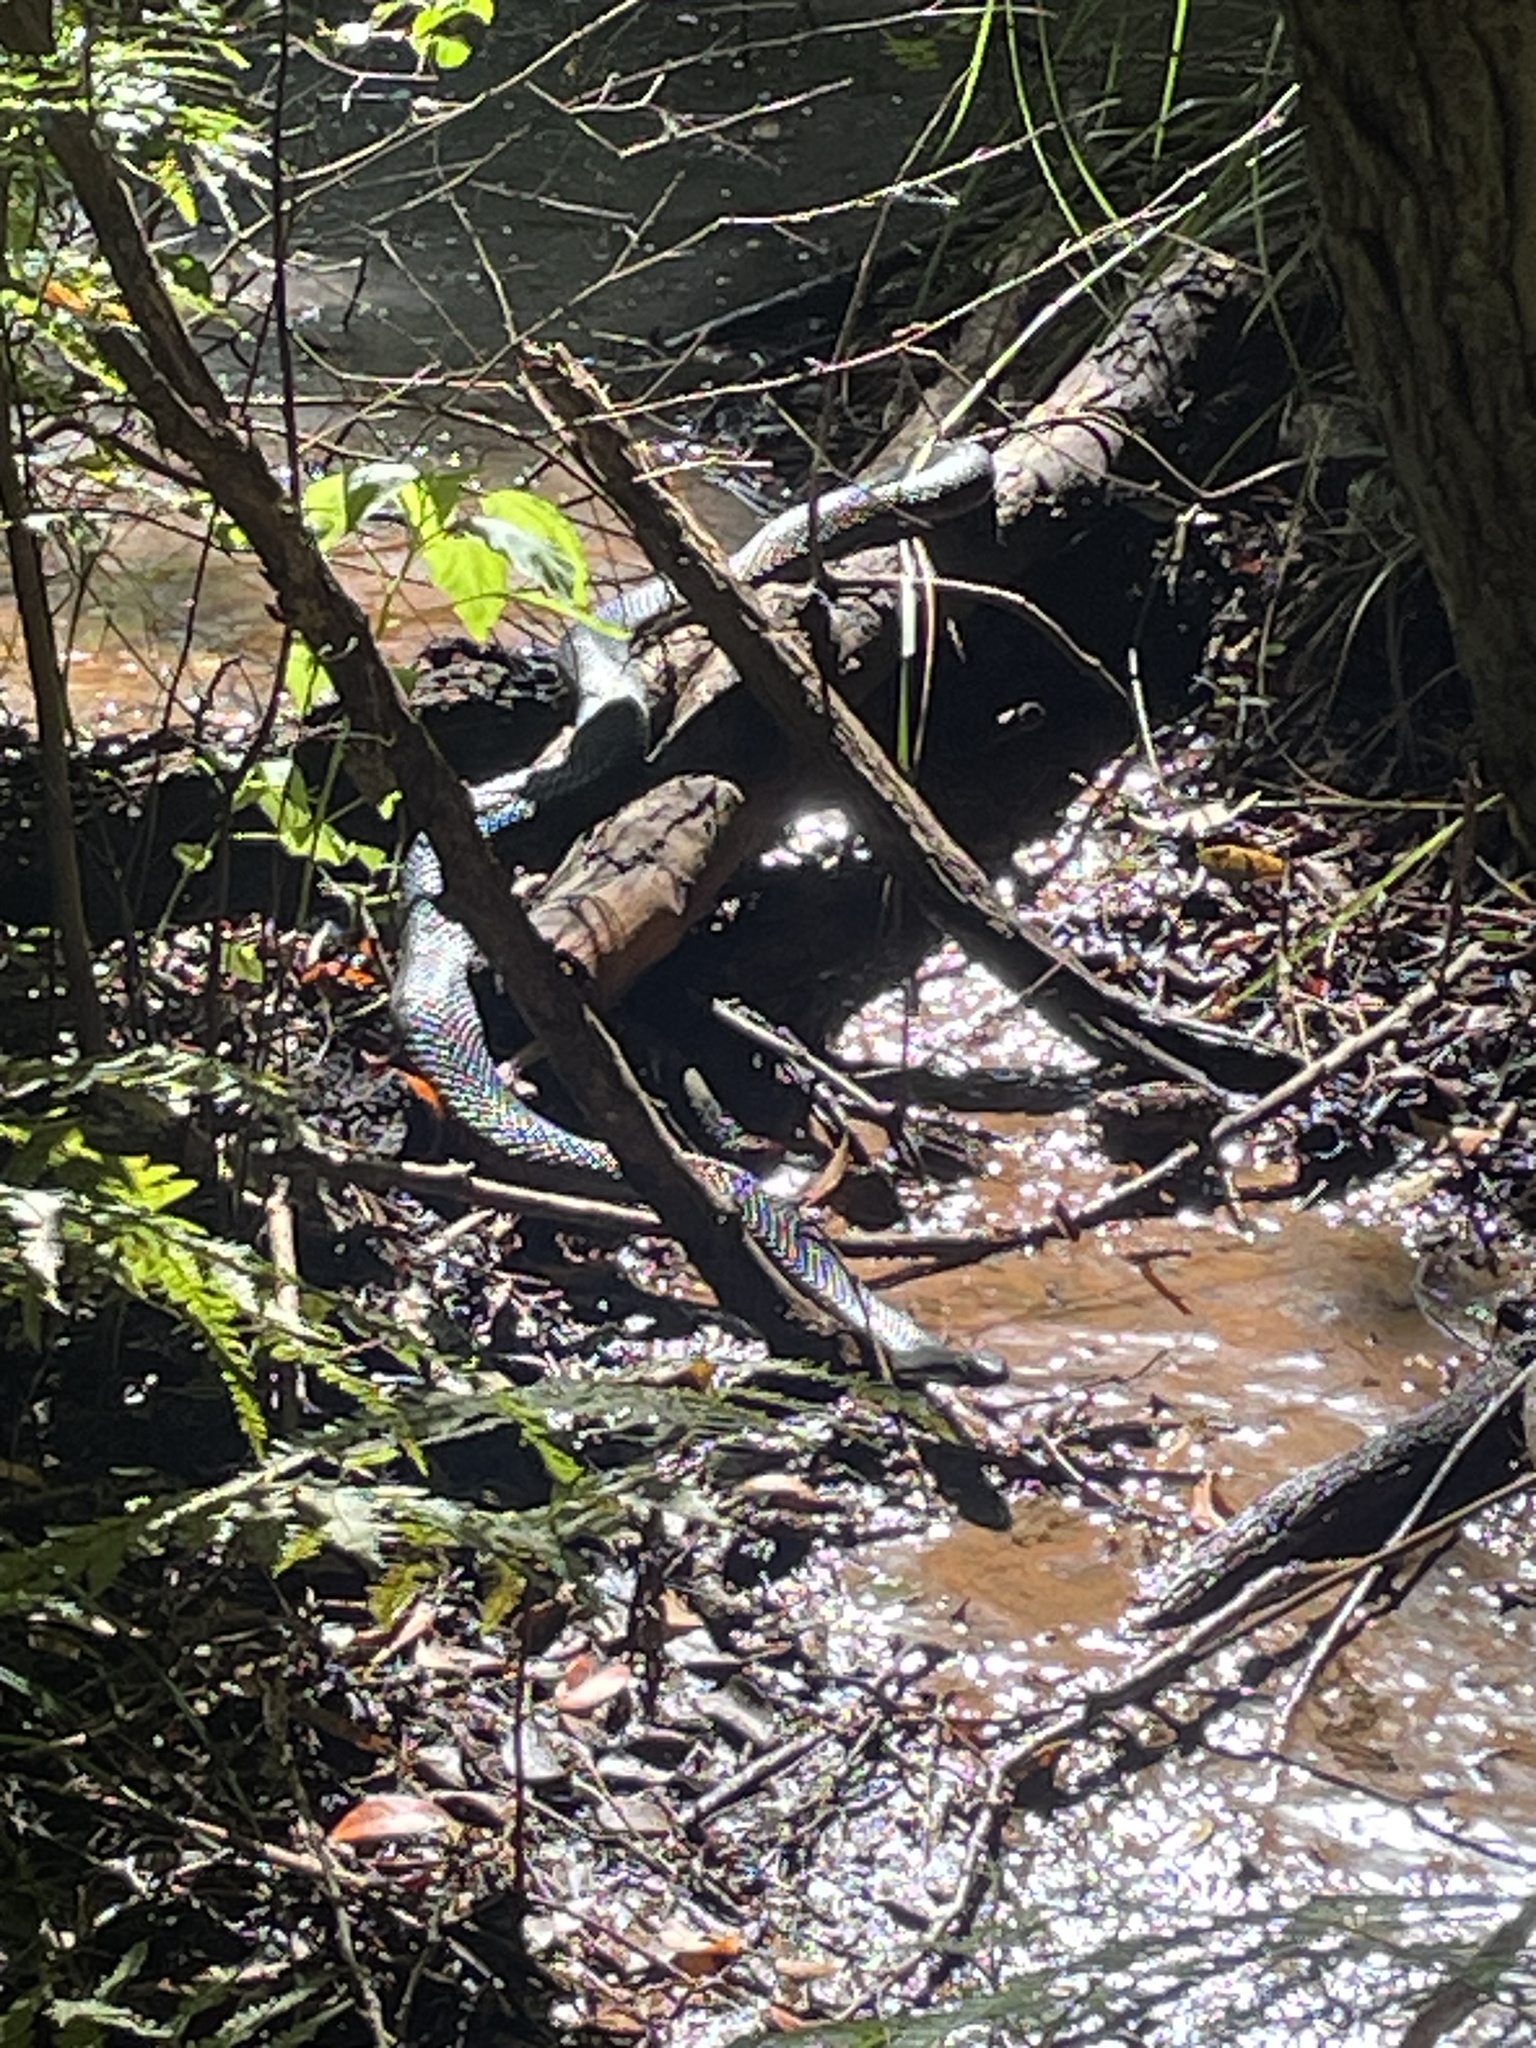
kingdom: Animalia
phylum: Chordata
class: Squamata
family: Elapidae
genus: Pseudechis
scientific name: Pseudechis porphyriacus
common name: Australian black snake
